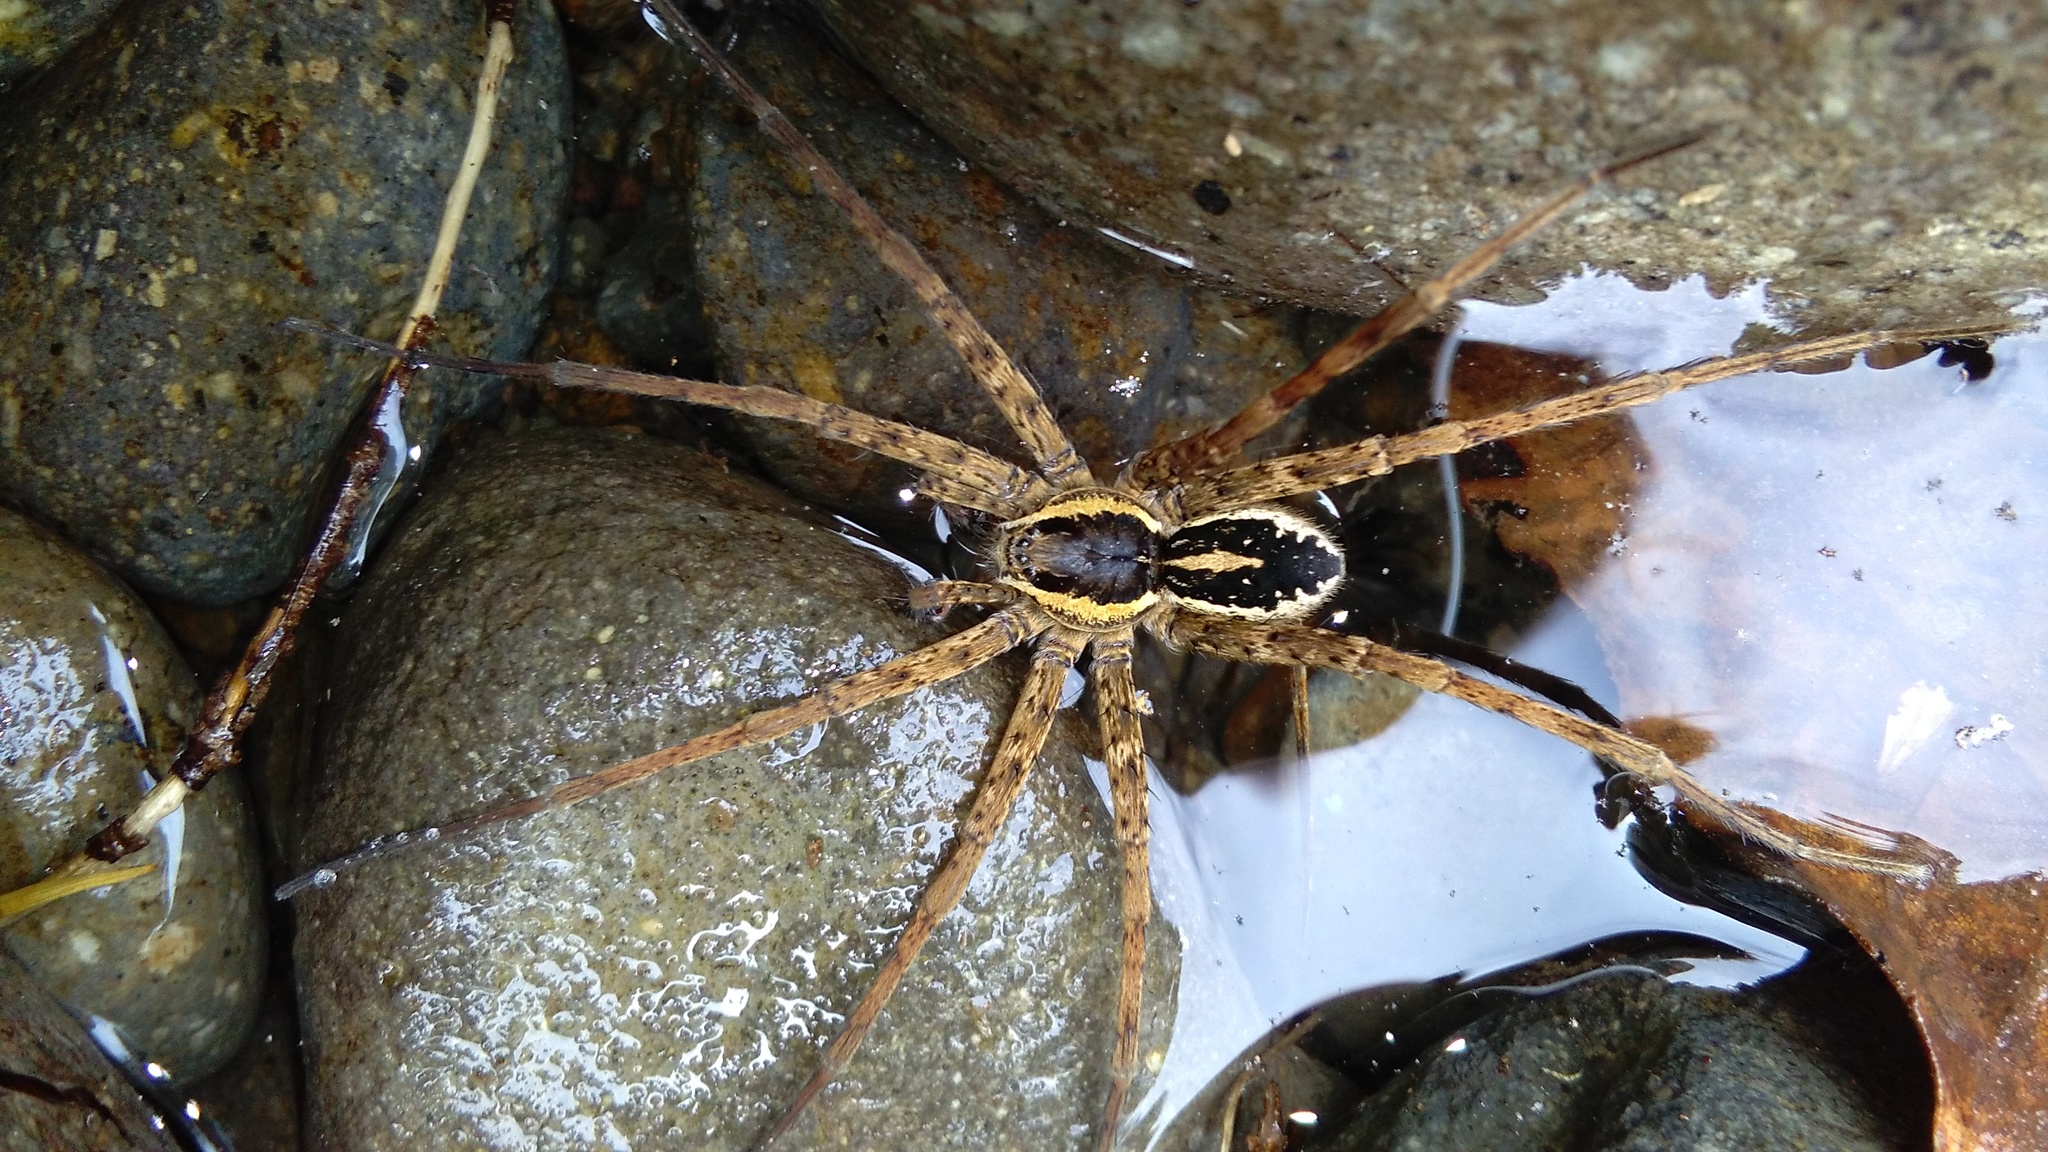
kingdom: Animalia
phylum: Arthropoda
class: Arachnida
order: Araneae
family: Pisauridae
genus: Dolomedes
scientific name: Dolomedes dondalei
